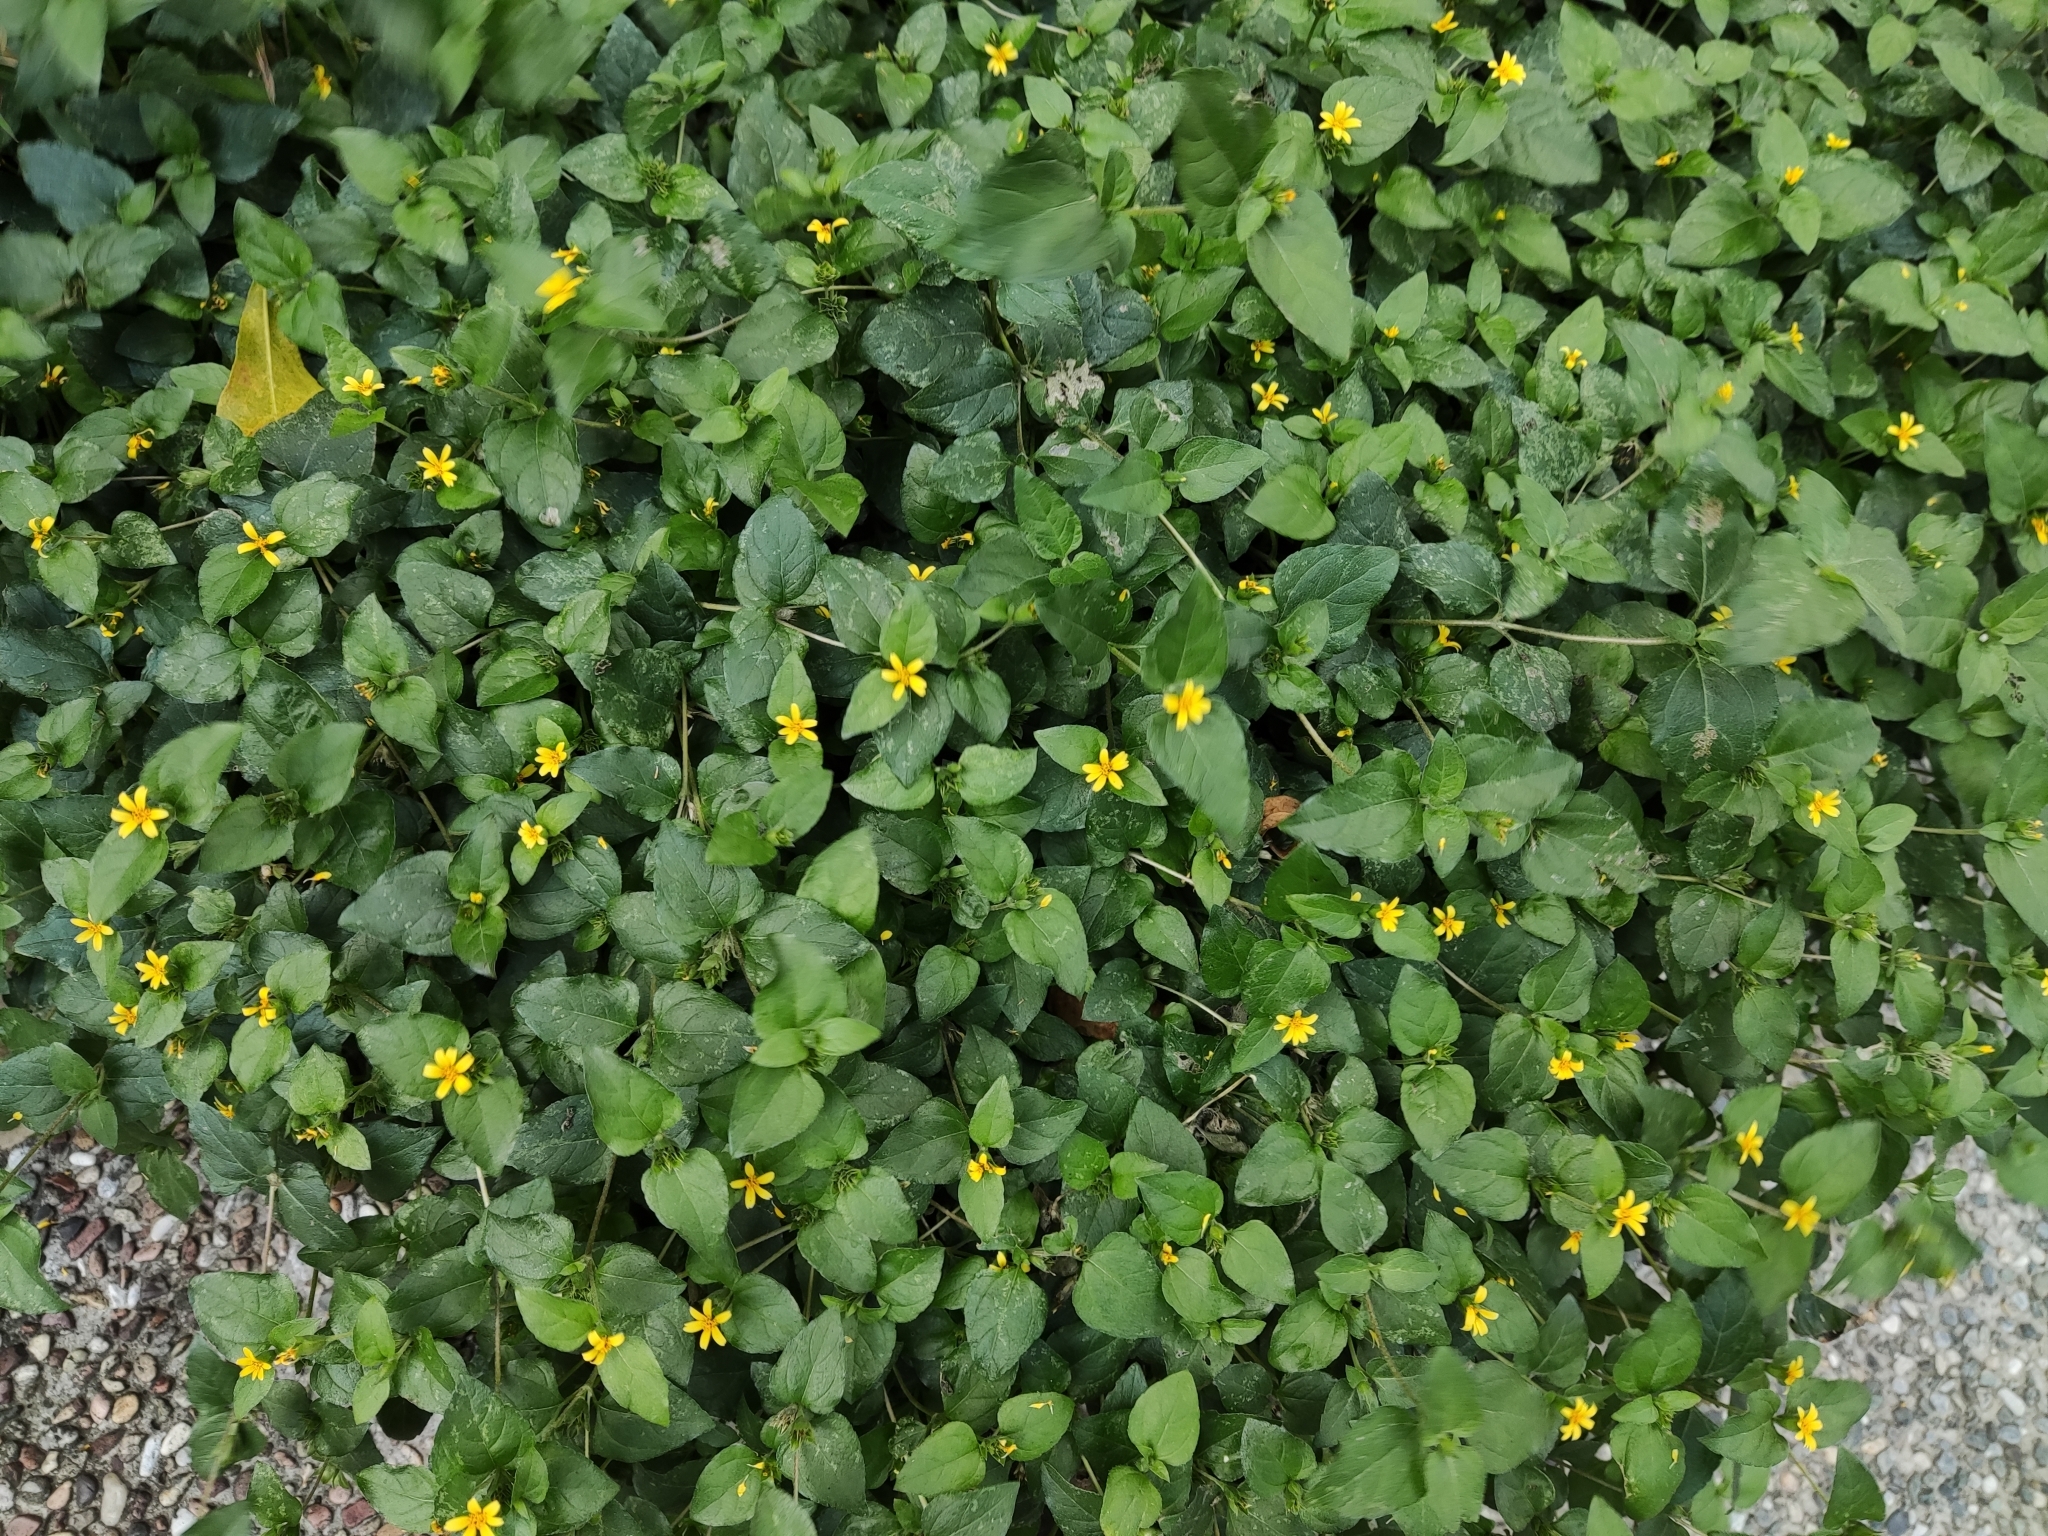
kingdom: Plantae
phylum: Tracheophyta
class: Magnoliopsida
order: Asterales
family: Asteraceae
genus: Calyptocarpus
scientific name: Calyptocarpus vialis
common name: Straggler daisy
